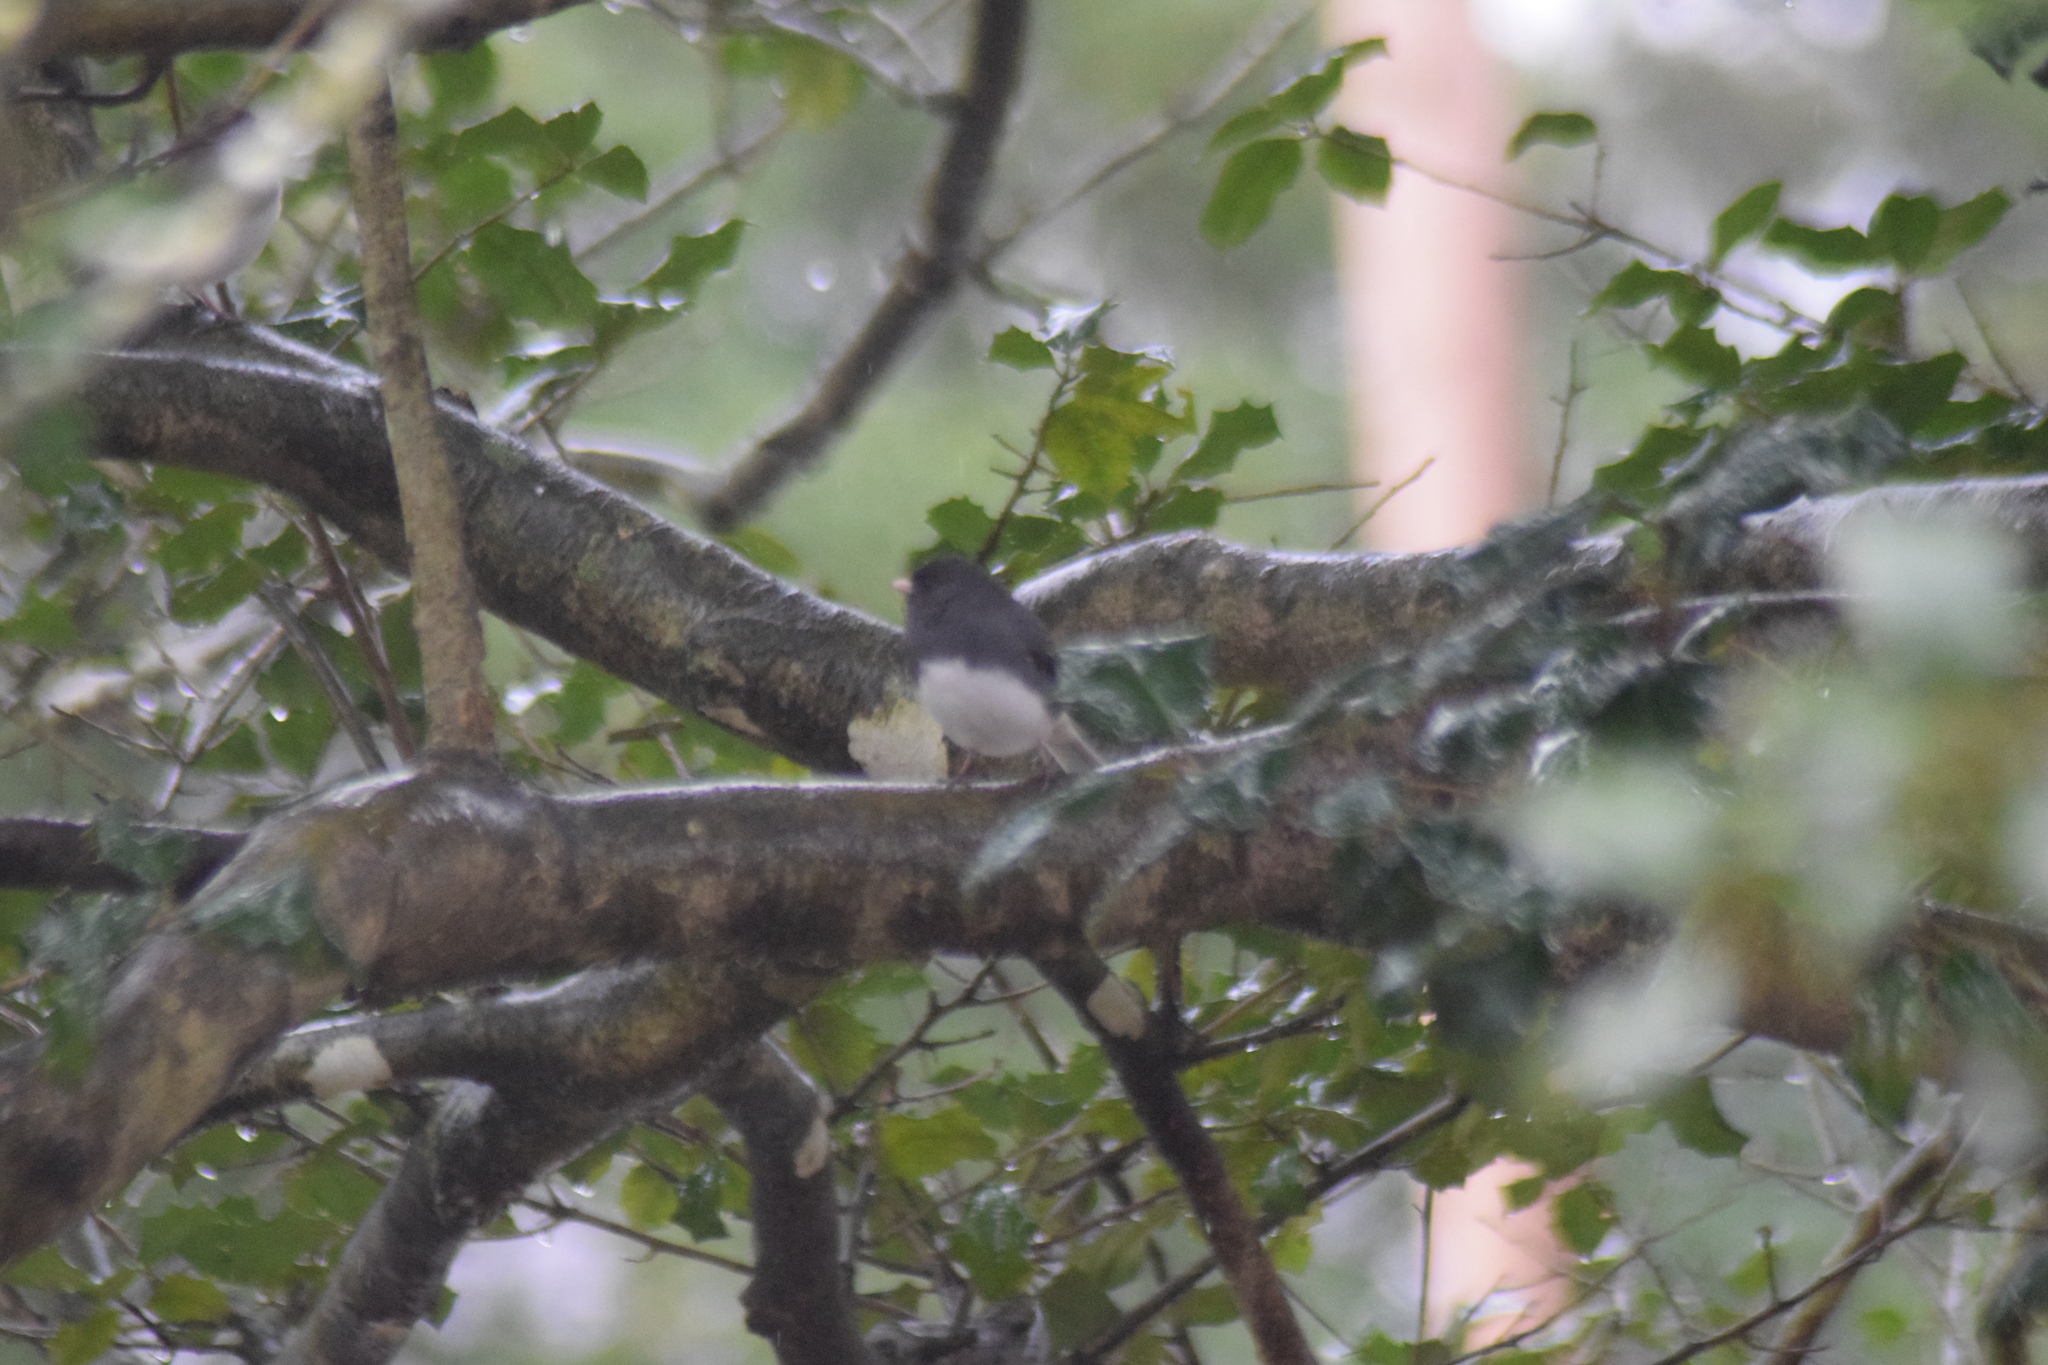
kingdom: Animalia
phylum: Chordata
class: Aves
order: Passeriformes
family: Passerellidae
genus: Junco
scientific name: Junco hyemalis
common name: Dark-eyed junco
